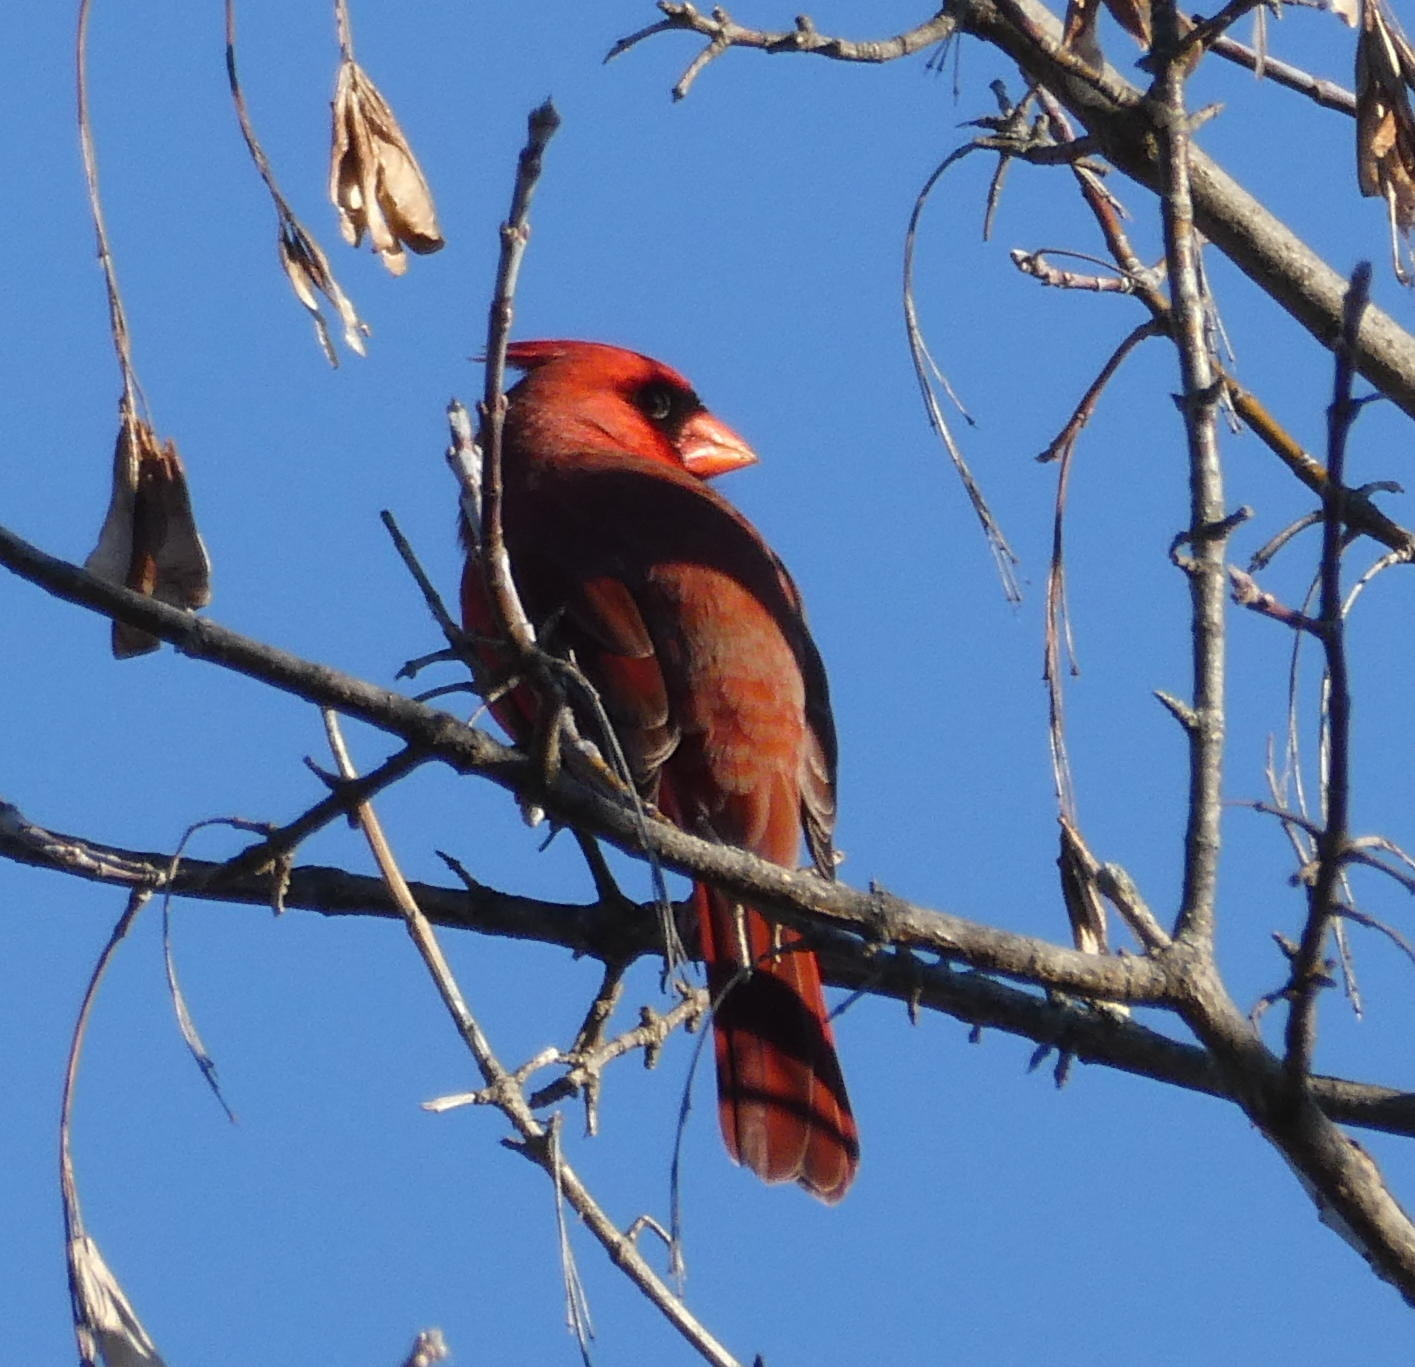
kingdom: Animalia
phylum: Chordata
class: Aves
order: Passeriformes
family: Cardinalidae
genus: Cardinalis
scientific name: Cardinalis cardinalis
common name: Northern cardinal
